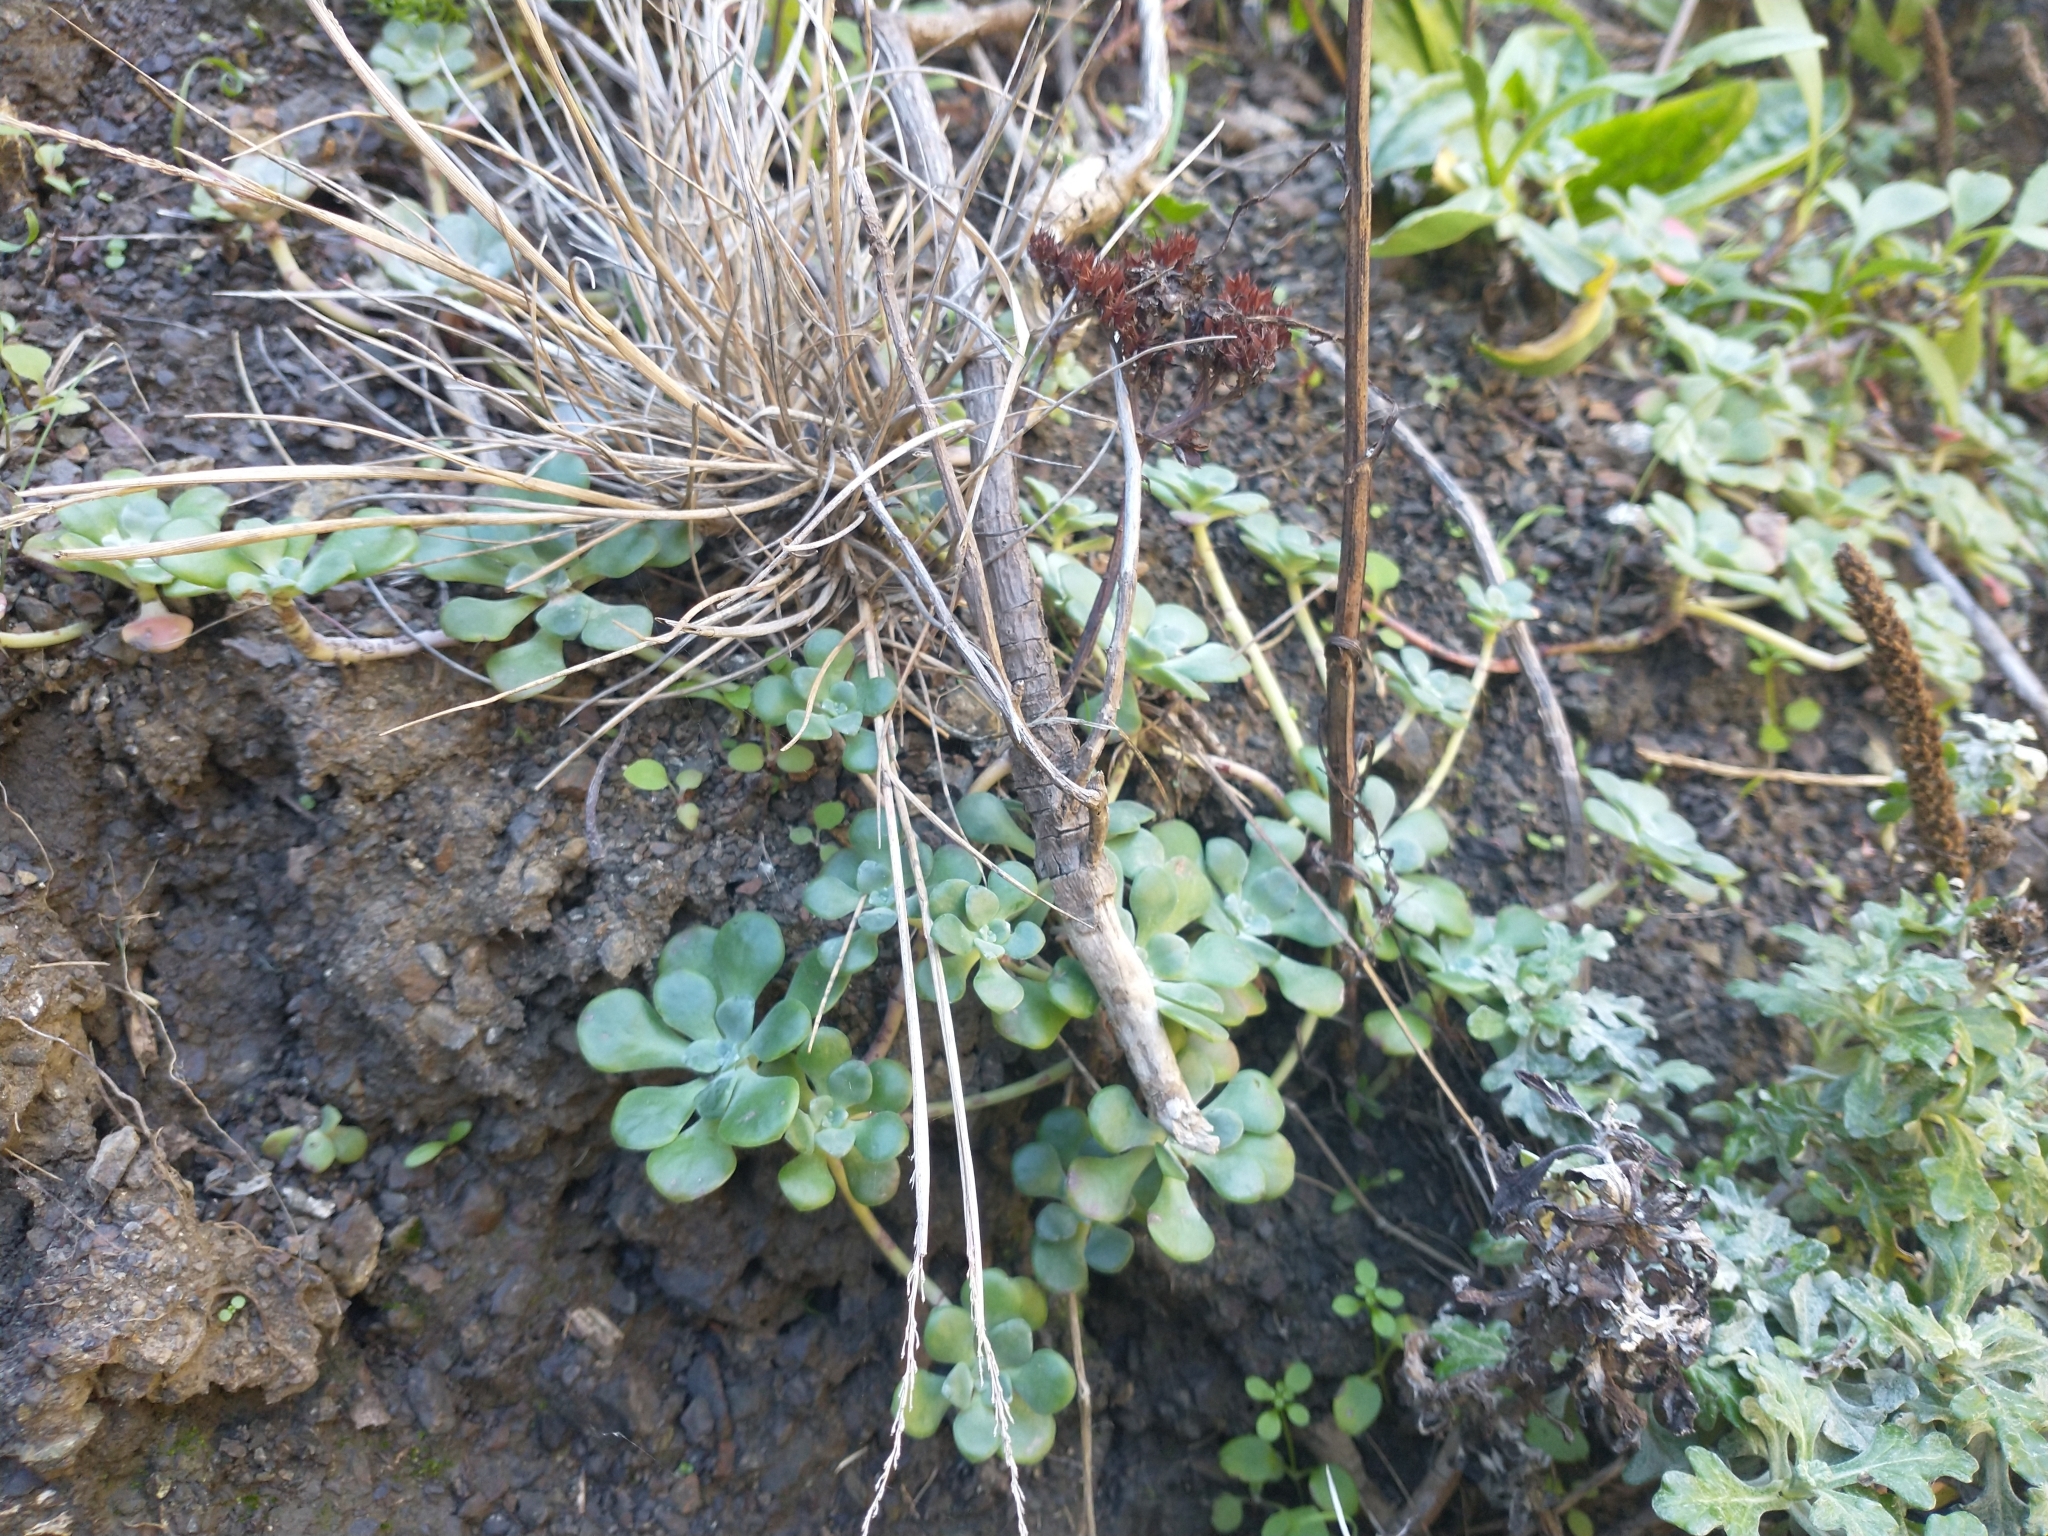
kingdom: Plantae
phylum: Tracheophyta
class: Magnoliopsida
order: Saxifragales
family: Crassulaceae
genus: Sedum
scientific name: Sedum spathulifolium
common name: Colorado stonecrop
